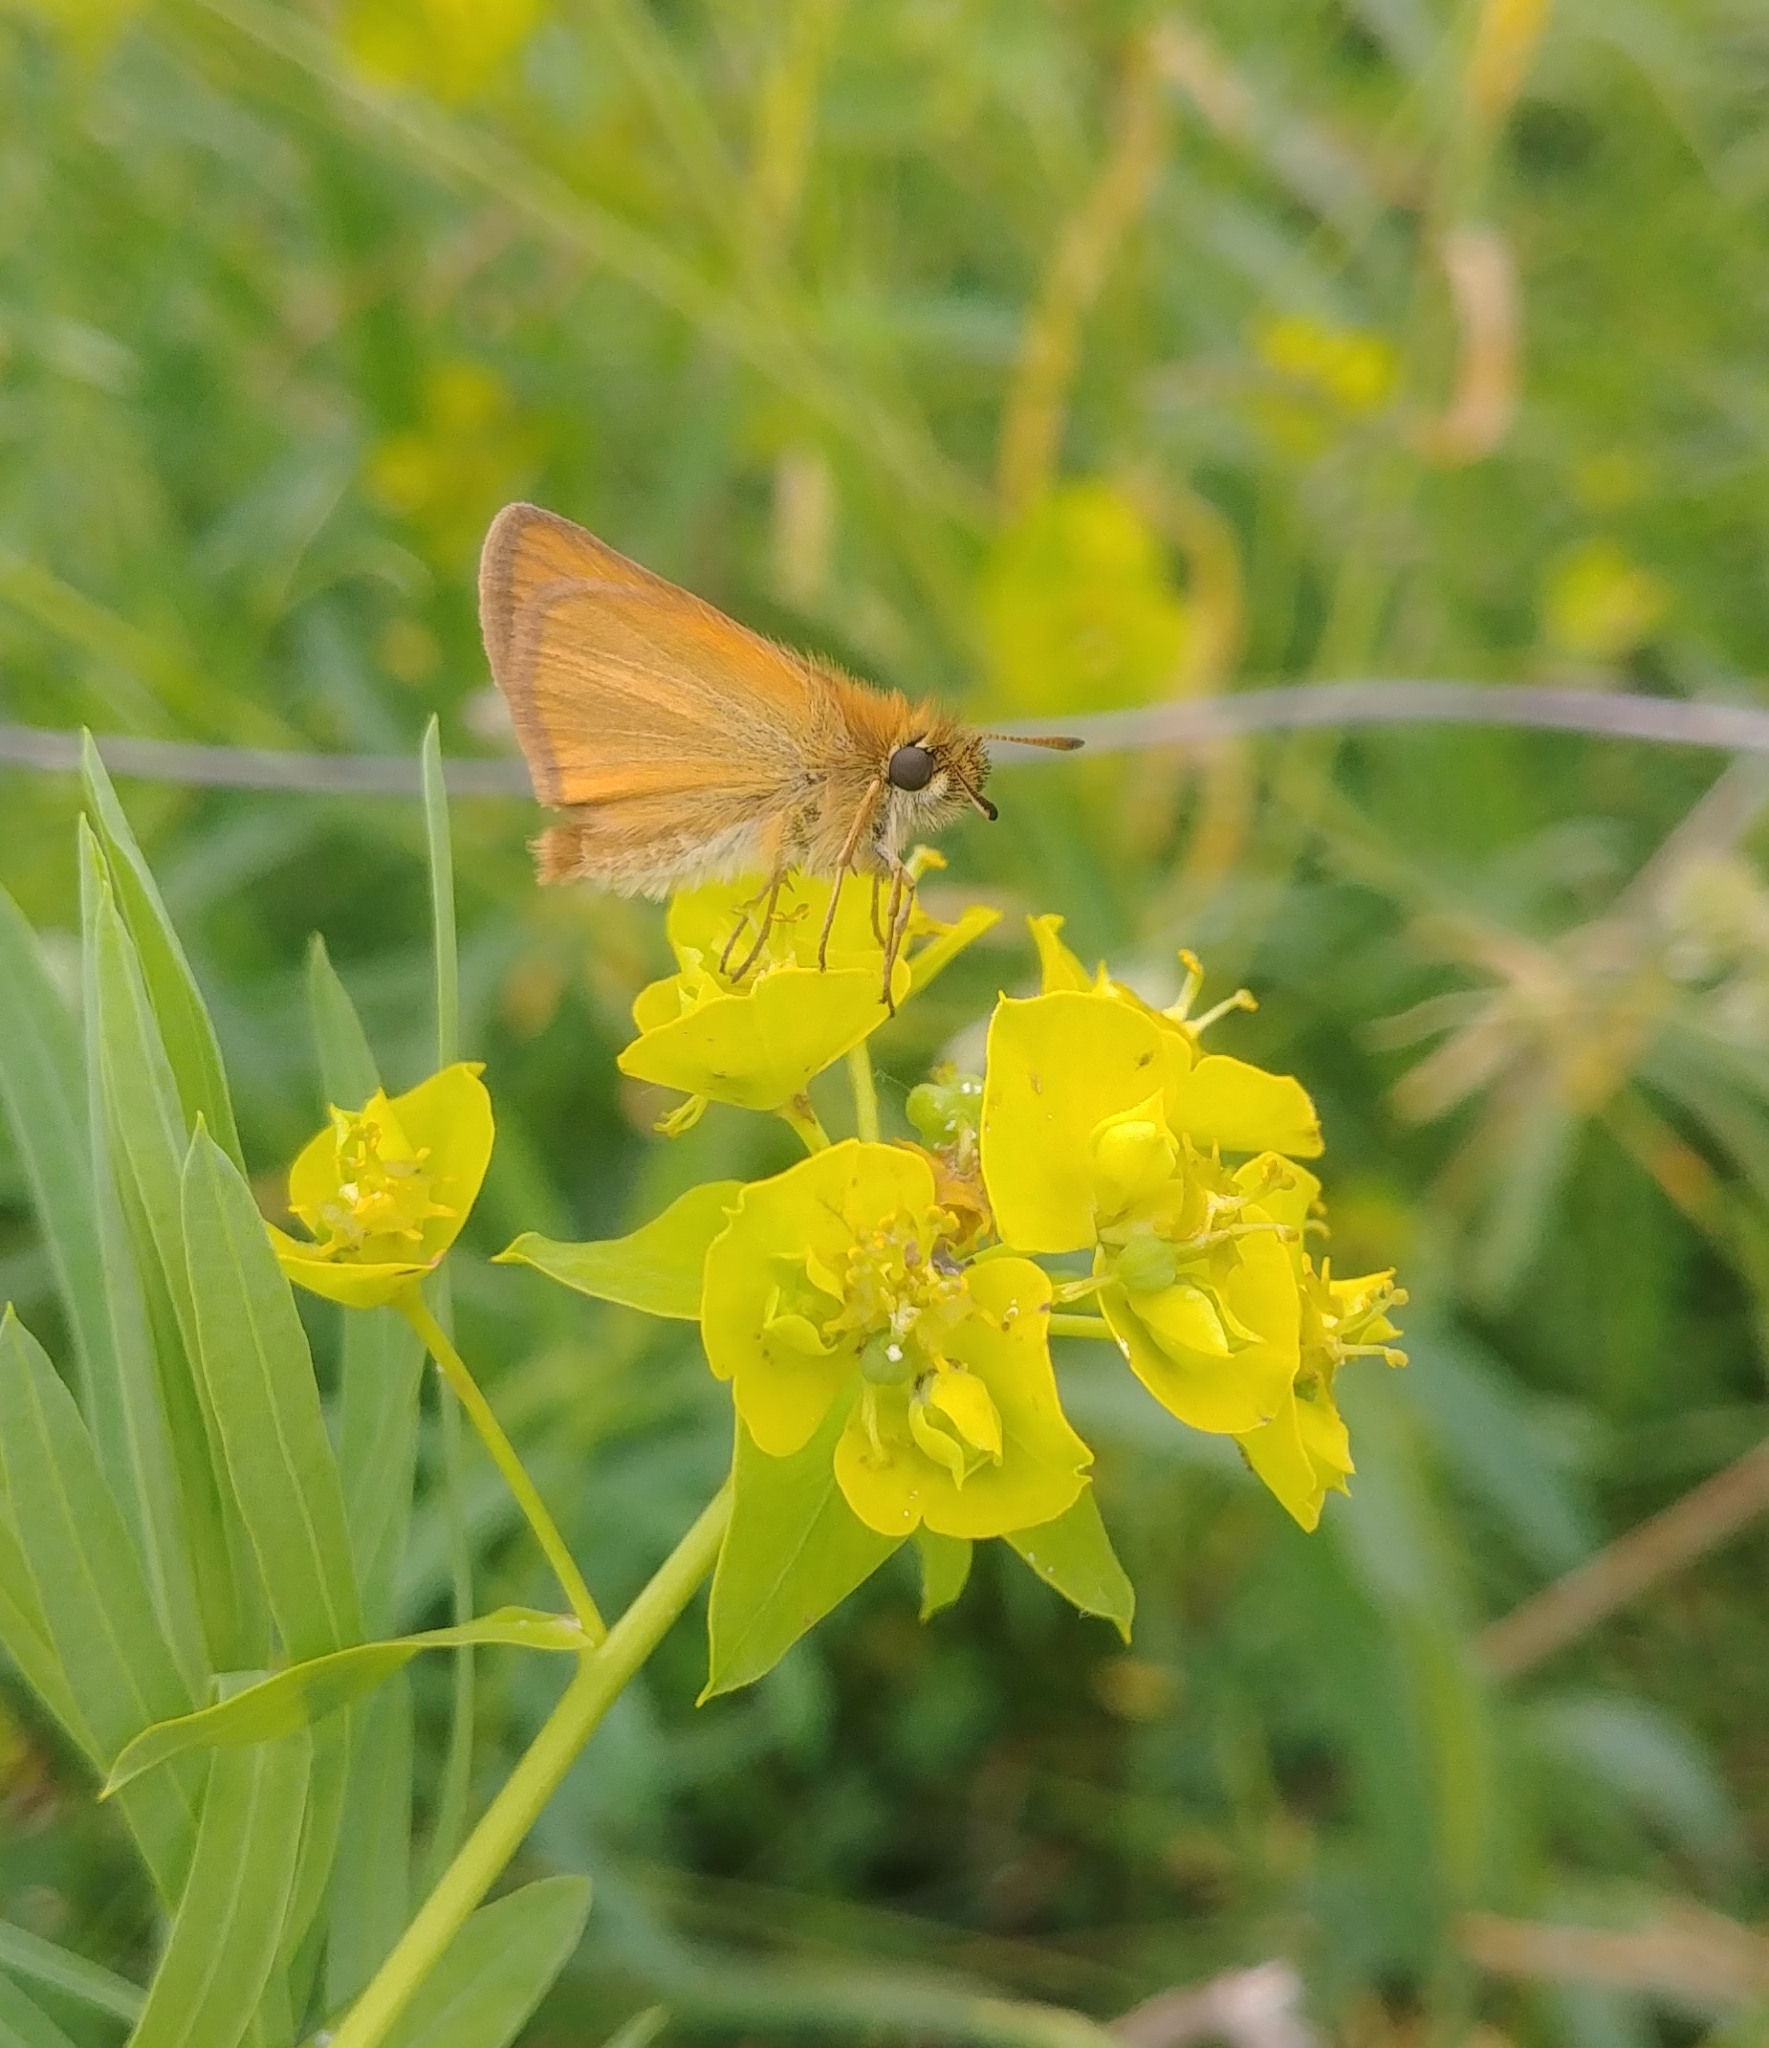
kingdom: Animalia
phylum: Arthropoda
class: Insecta
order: Lepidoptera
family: Hesperiidae
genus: Thymelicus
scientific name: Thymelicus lineola
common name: Essex skipper
